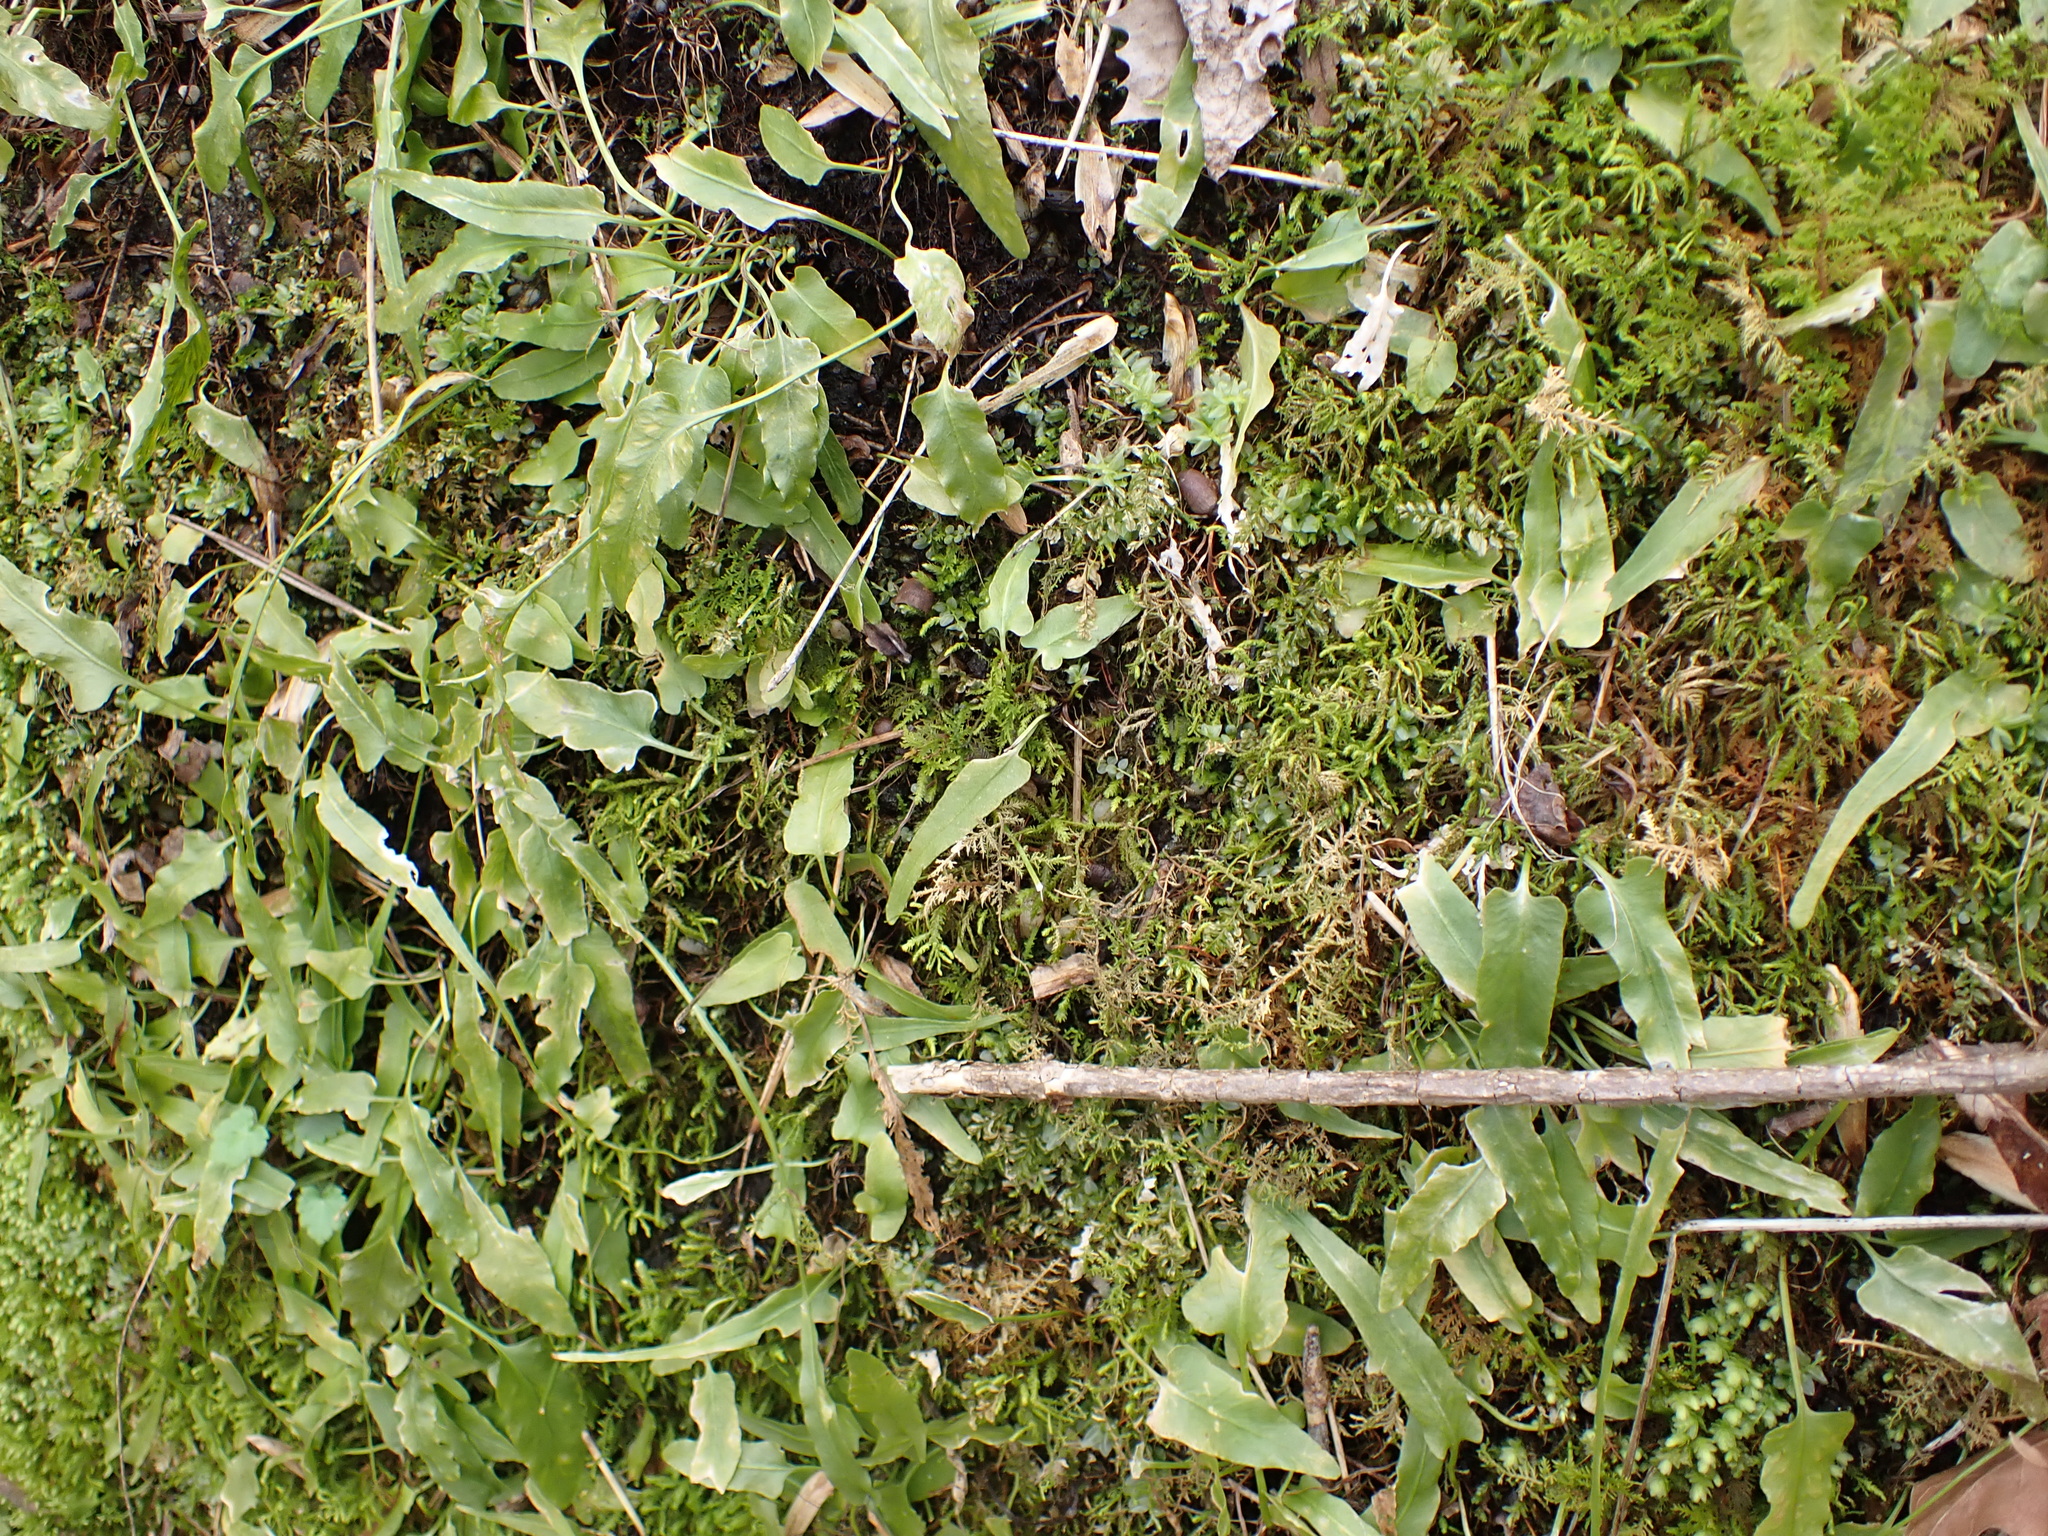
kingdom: Plantae
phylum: Tracheophyta
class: Polypodiopsida
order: Polypodiales
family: Aspleniaceae
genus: Asplenium
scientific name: Asplenium rhizophyllum
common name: Walking fern
